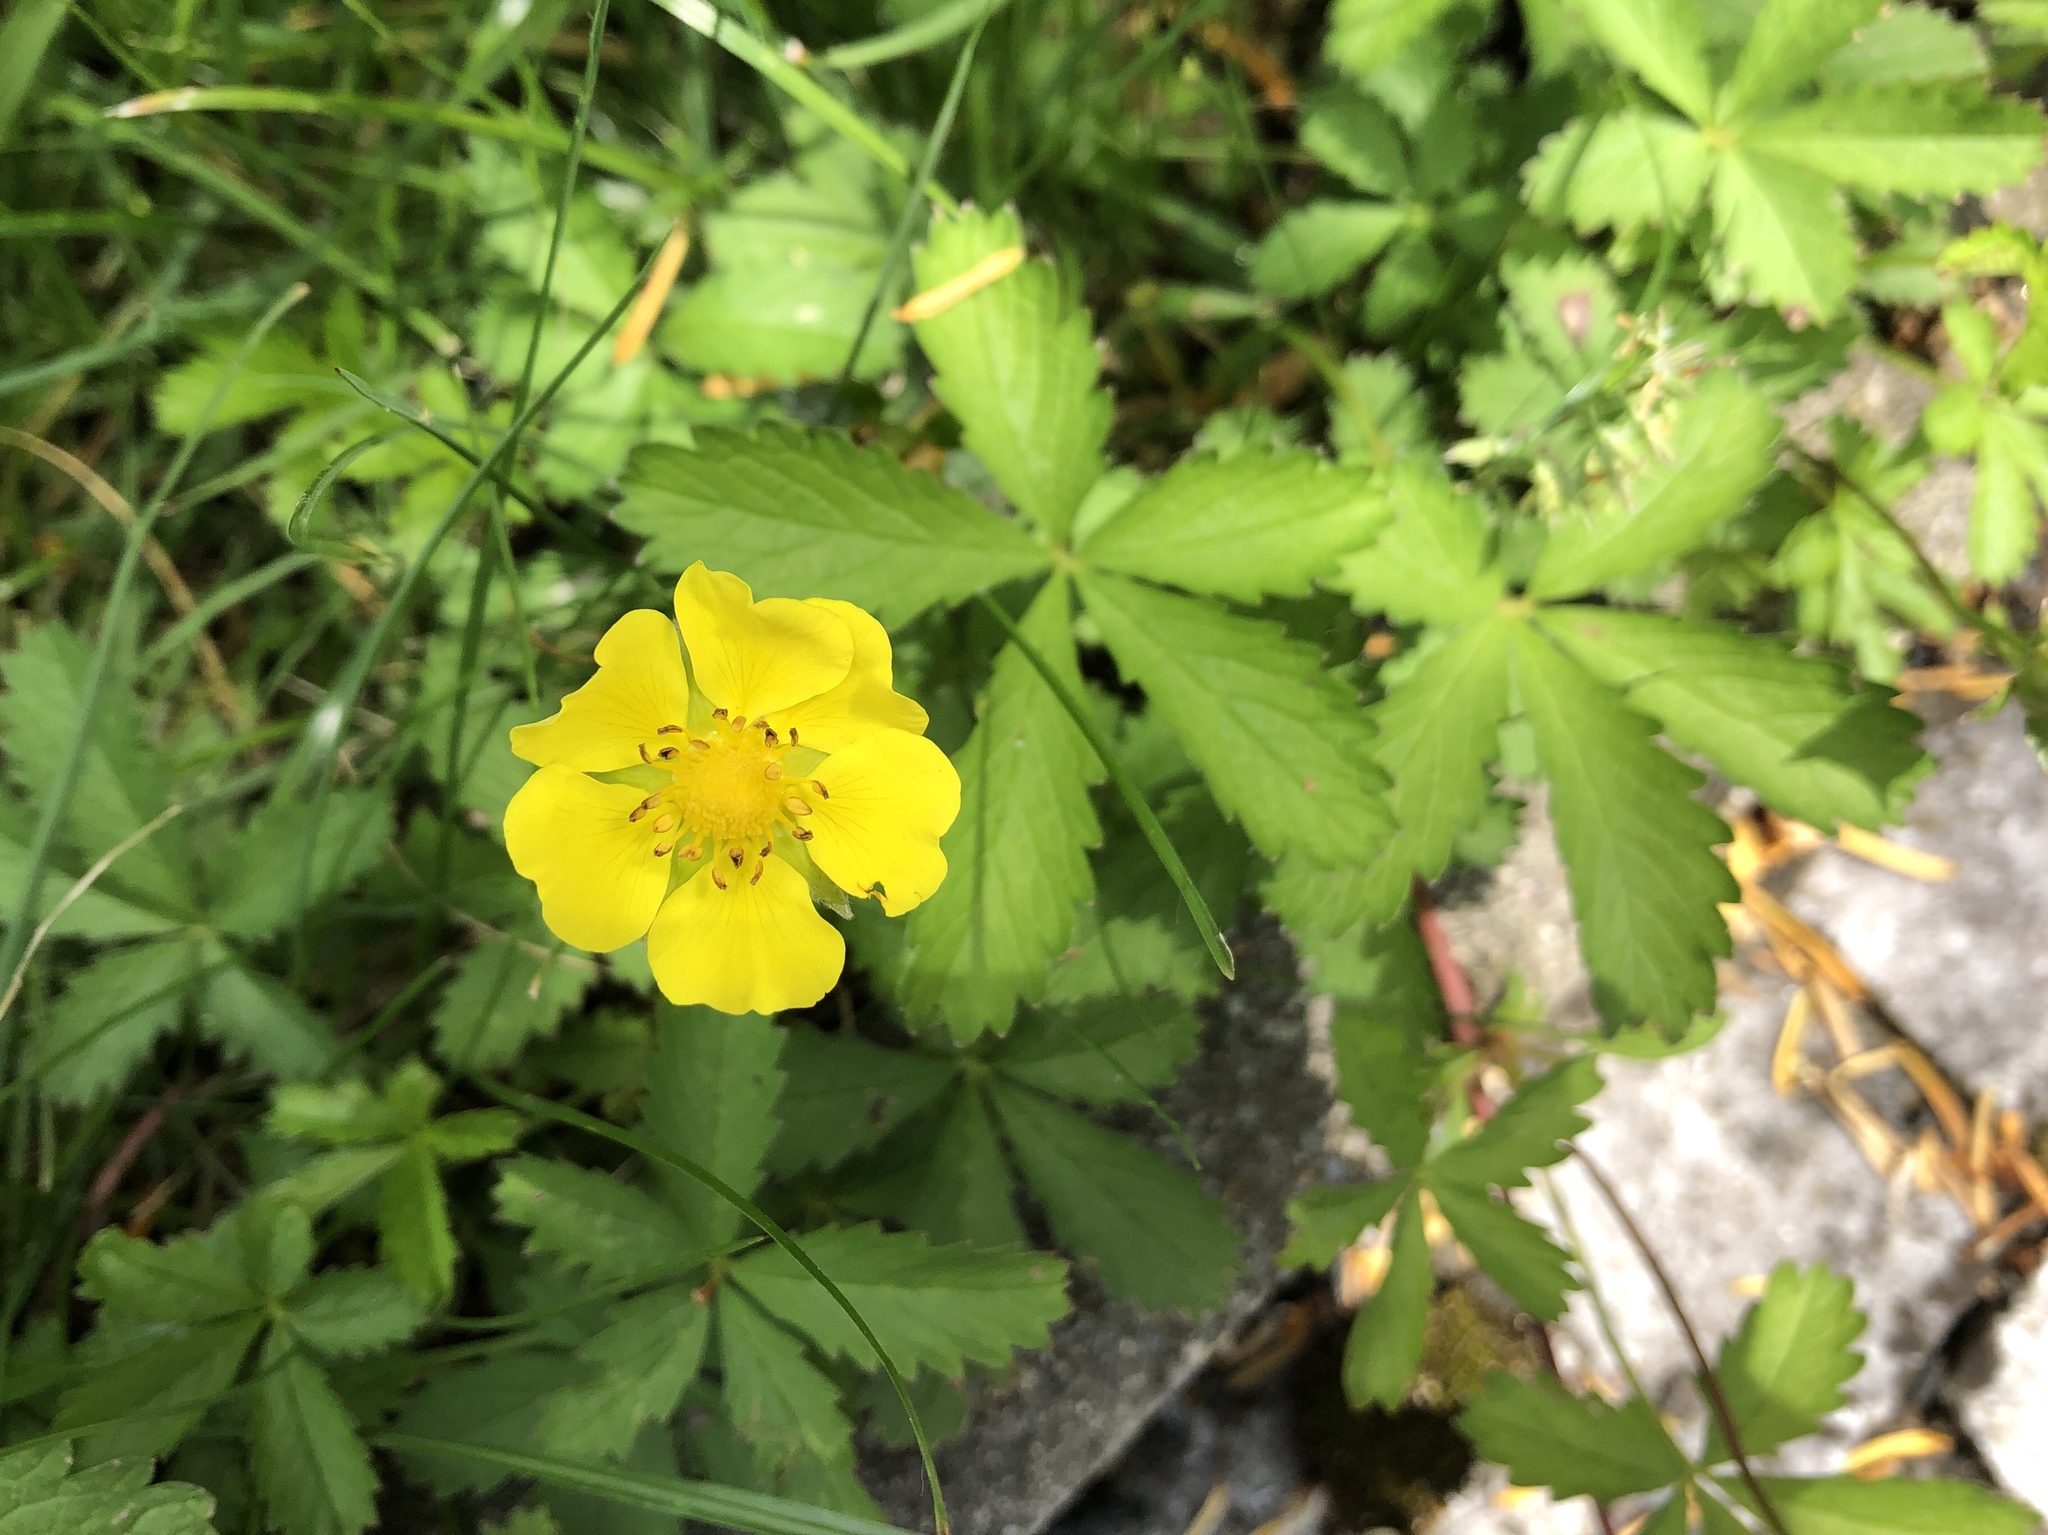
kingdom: Plantae
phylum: Tracheophyta
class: Magnoliopsida
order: Rosales
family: Rosaceae
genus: Potentilla
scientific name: Potentilla reptans
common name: Creeping cinquefoil
